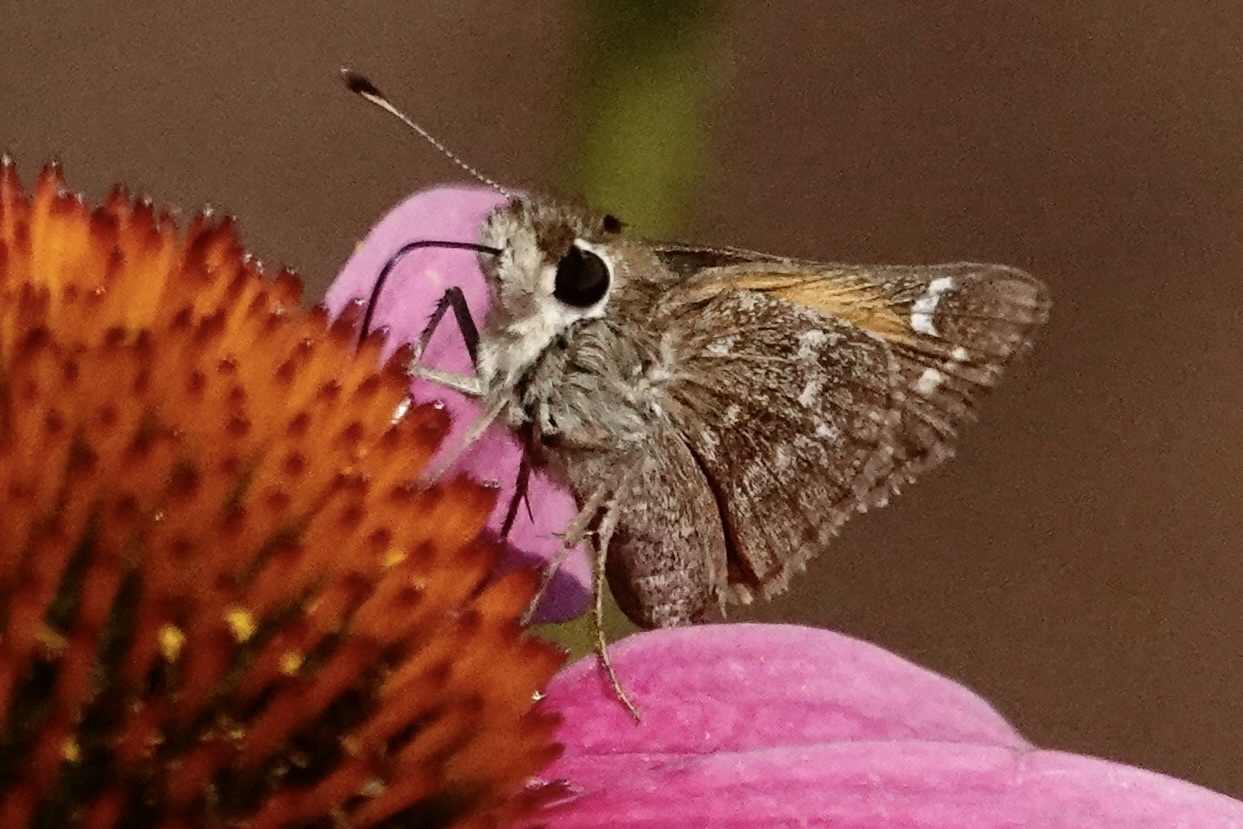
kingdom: Animalia
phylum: Arthropoda
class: Insecta
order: Lepidoptera
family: Hesperiidae
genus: Atalopedes
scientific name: Atalopedes
